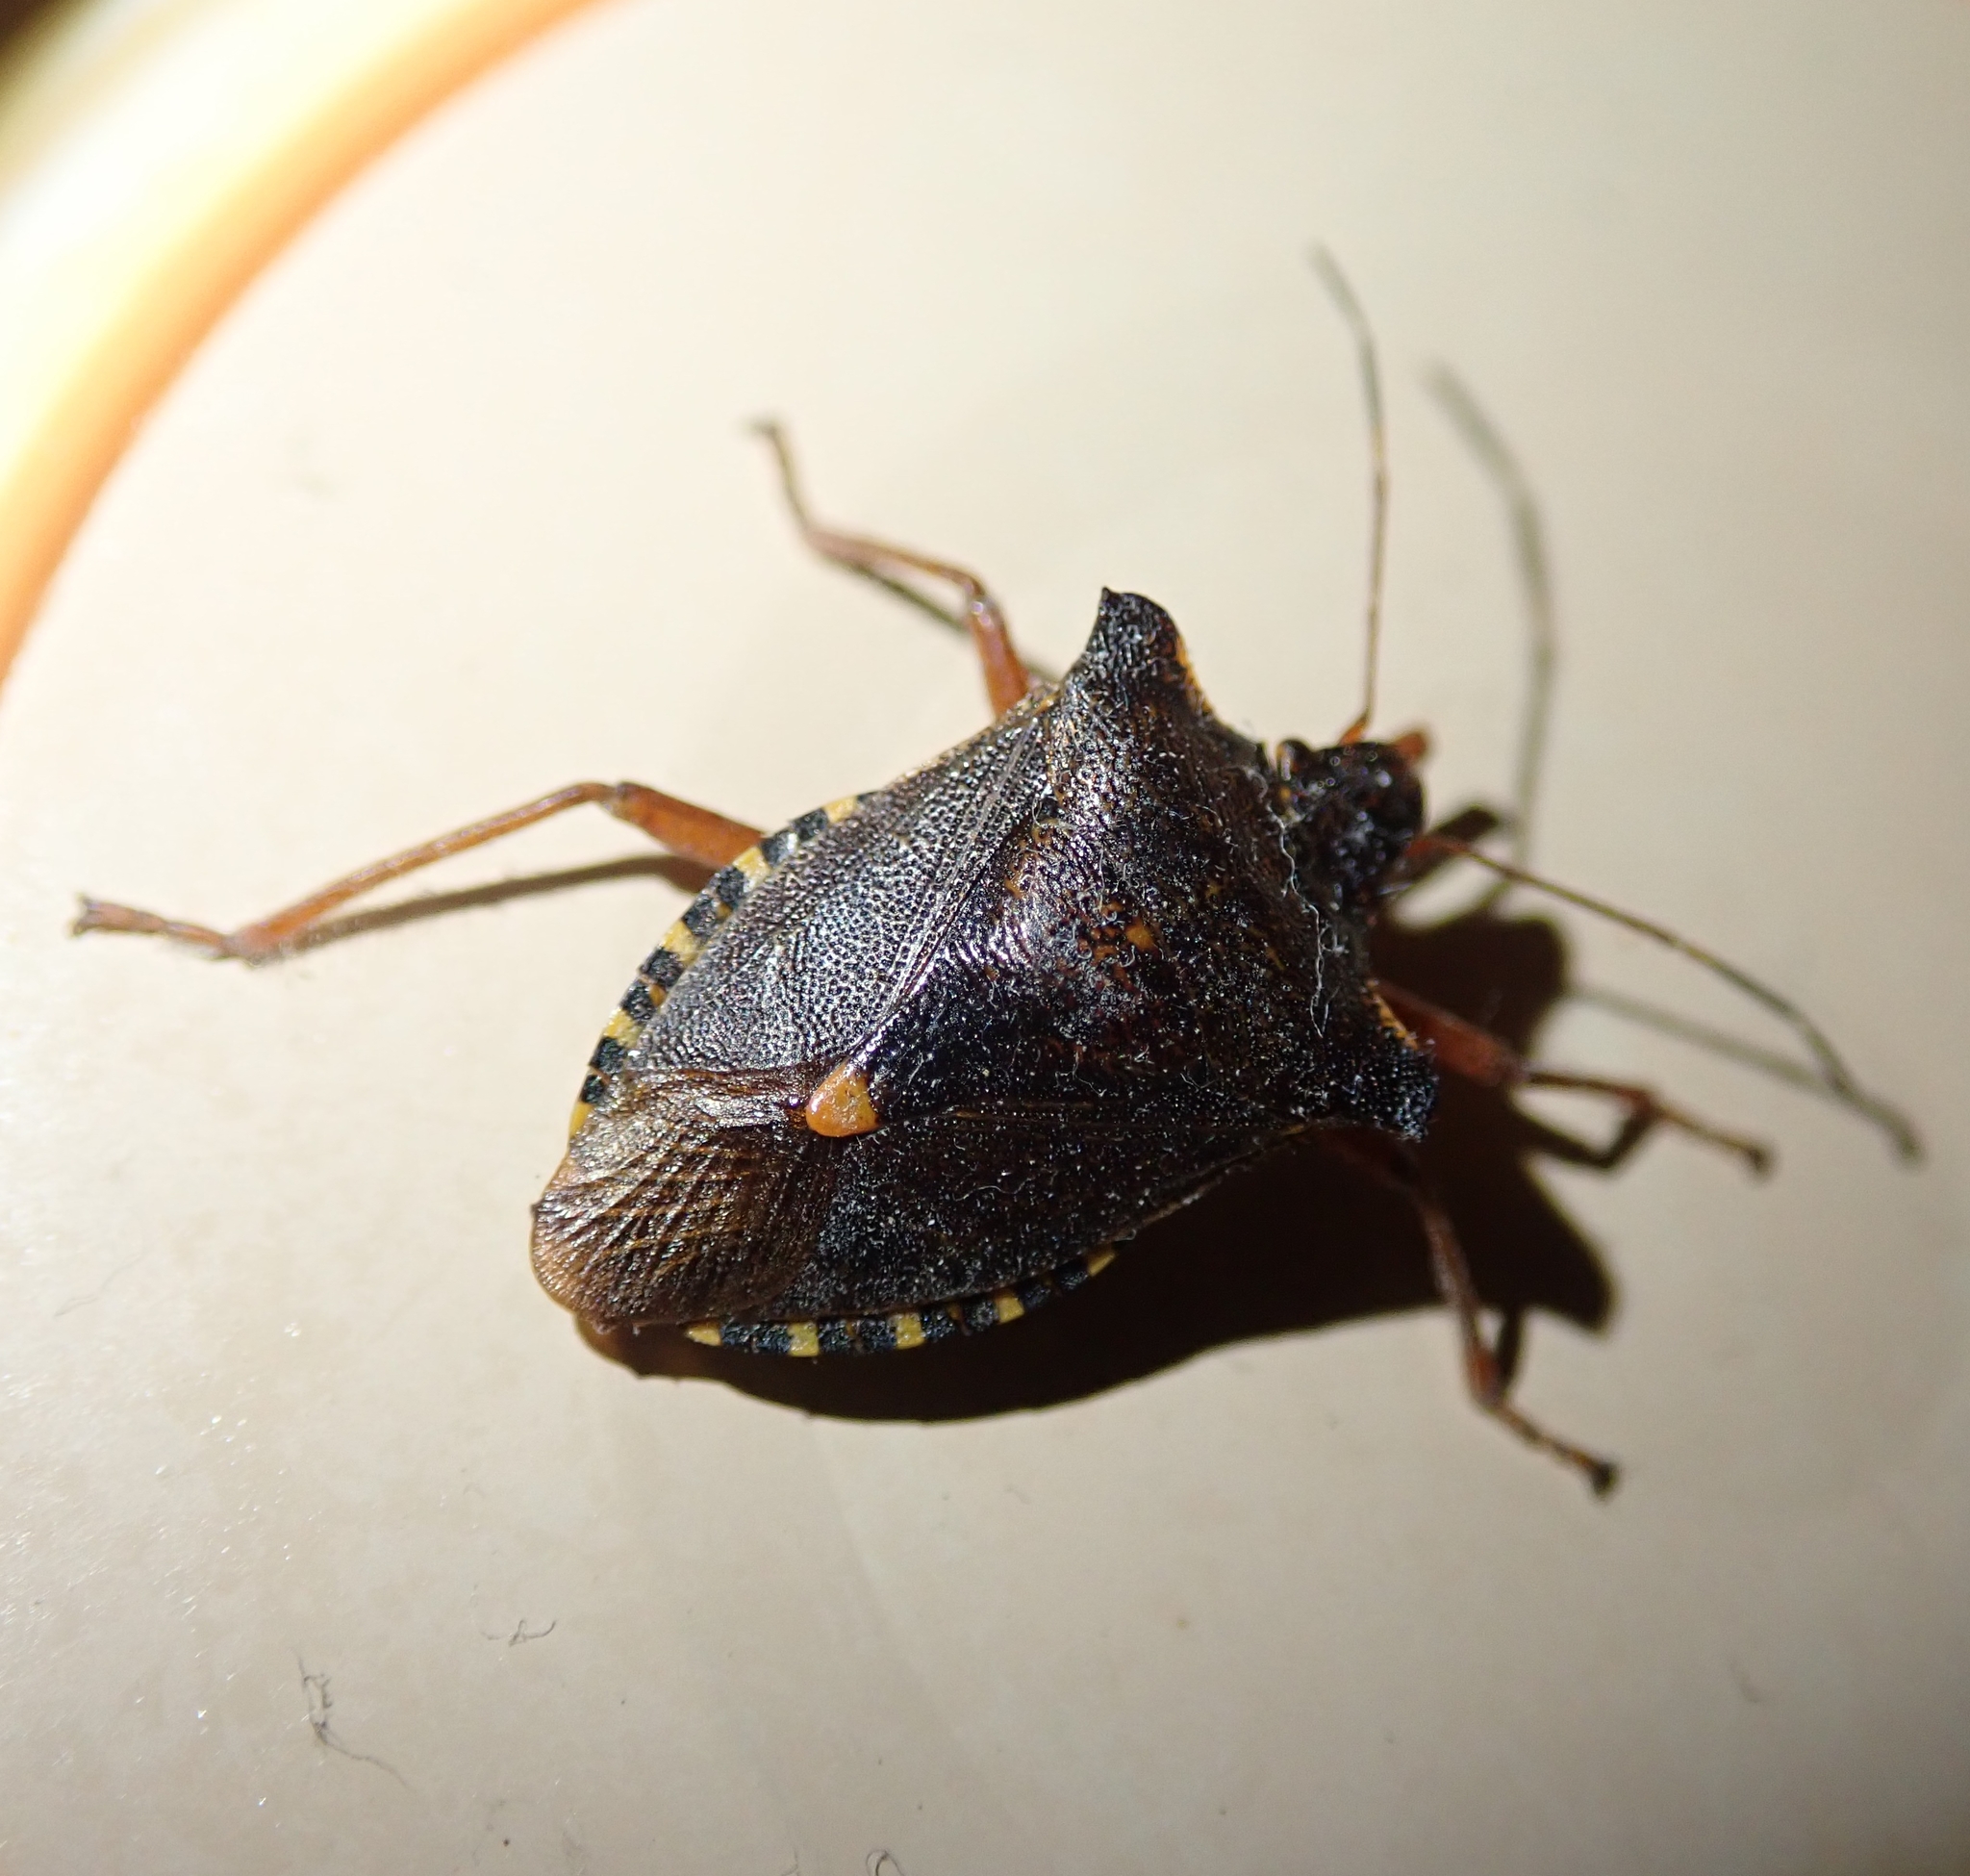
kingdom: Animalia
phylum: Arthropoda
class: Insecta
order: Hemiptera
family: Pentatomidae
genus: Pentatoma
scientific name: Pentatoma rufipes
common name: Forest bug
